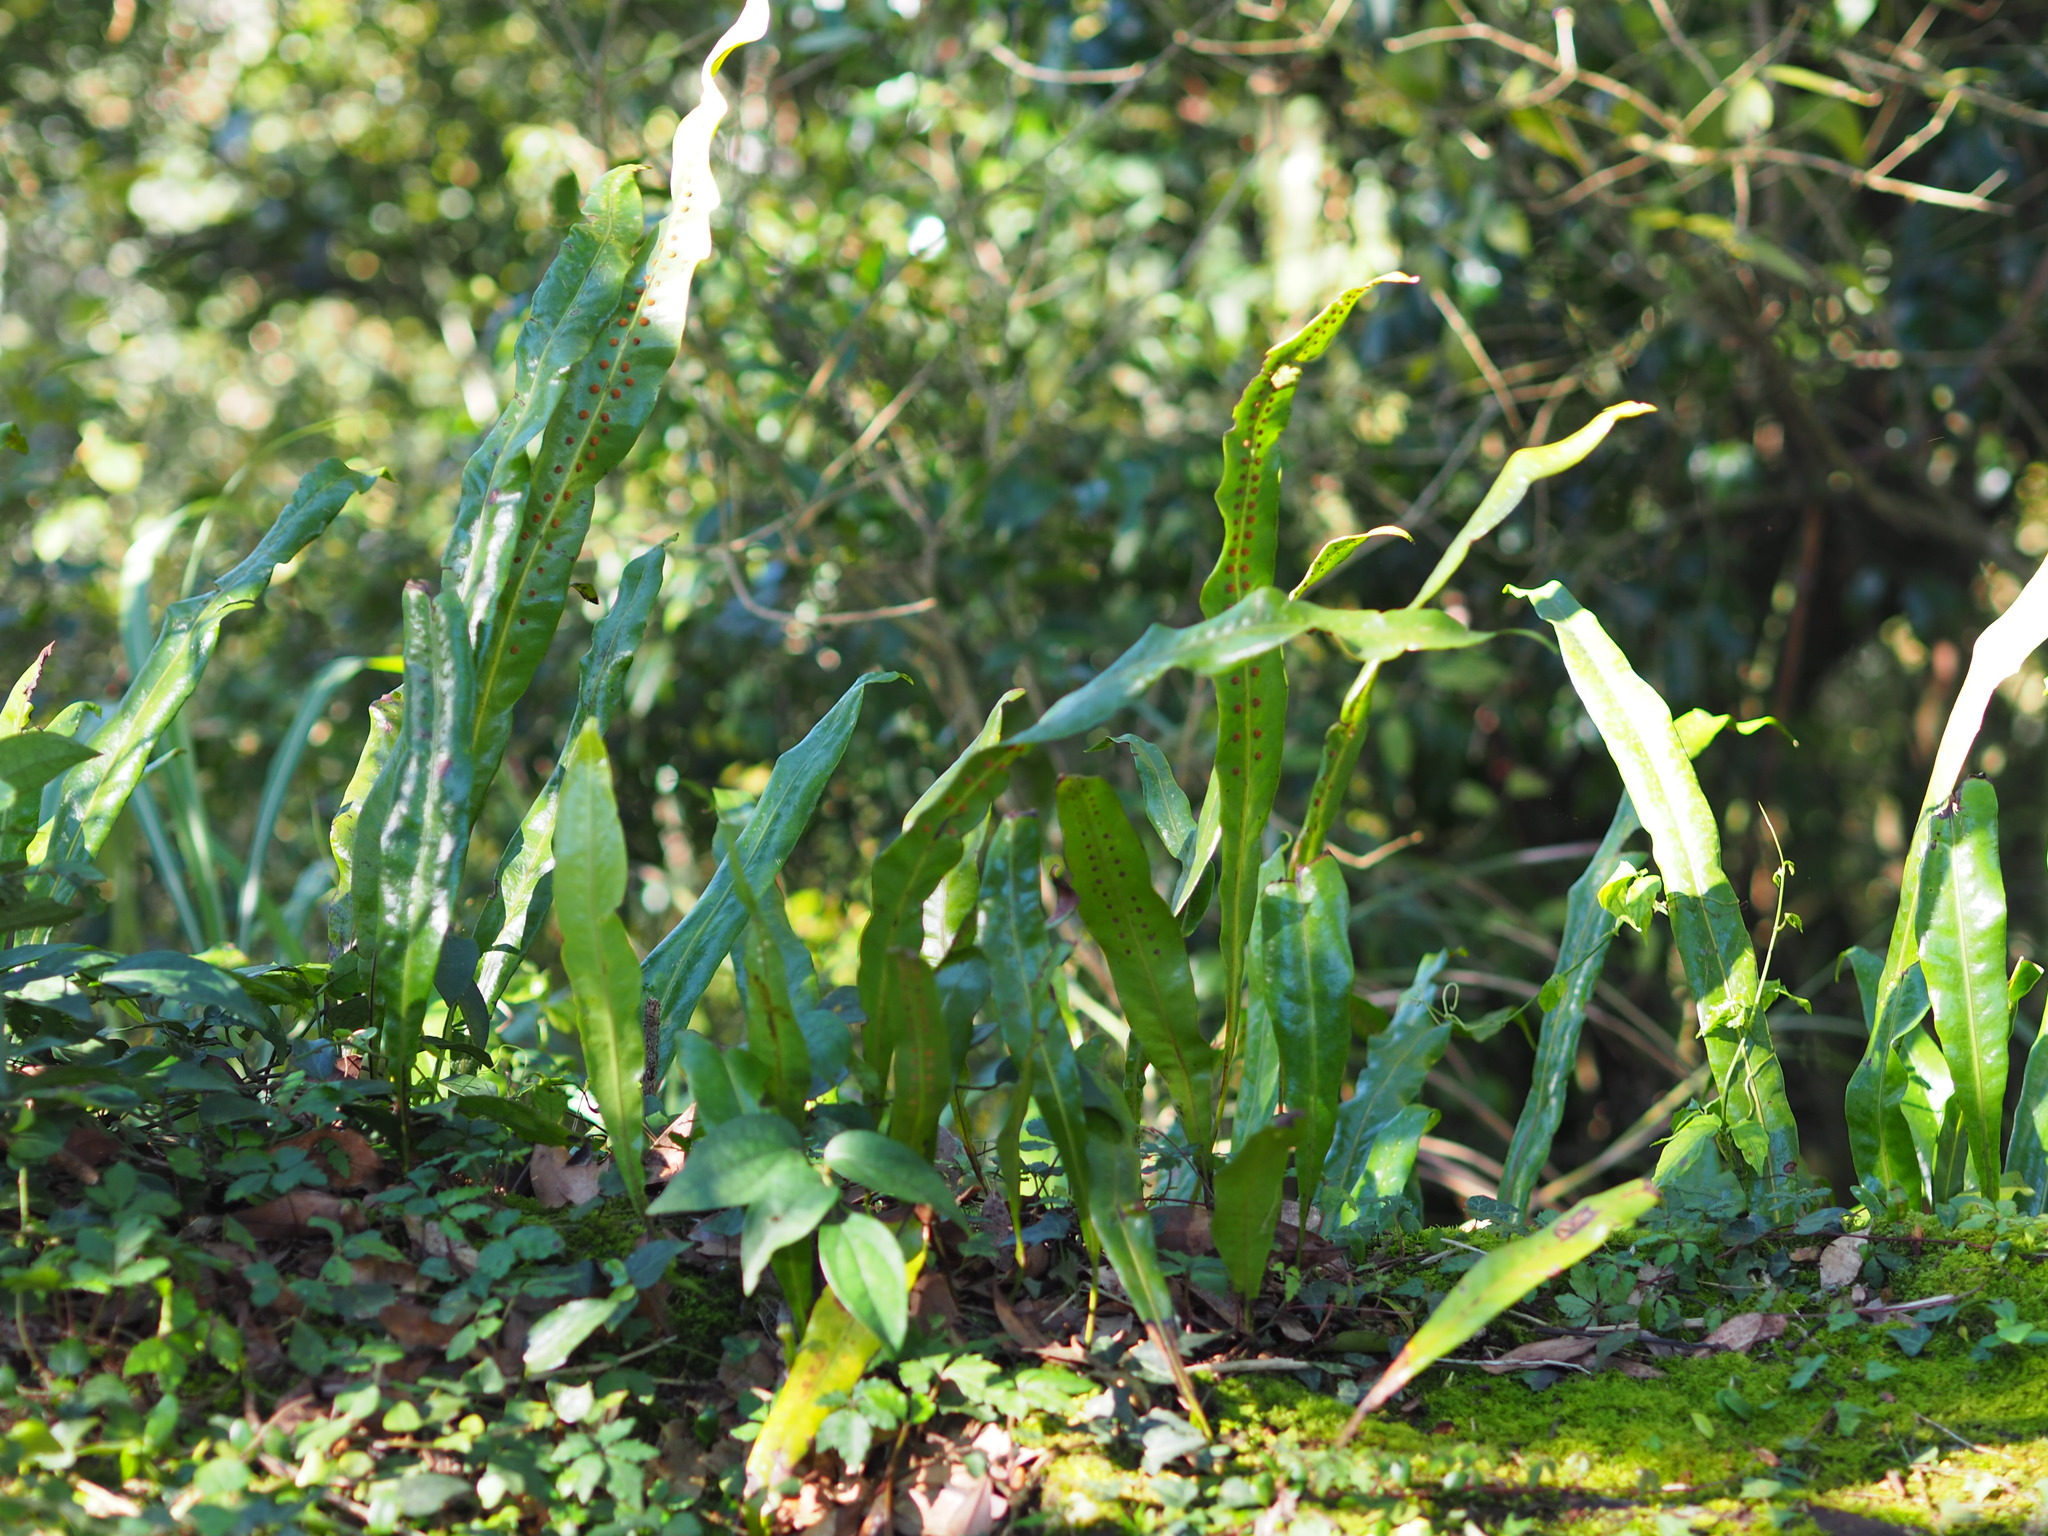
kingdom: Plantae
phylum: Tracheophyta
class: Polypodiopsida
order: Polypodiales
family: Polypodiaceae
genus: Lepisorus
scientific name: Lepisorus fortuni
